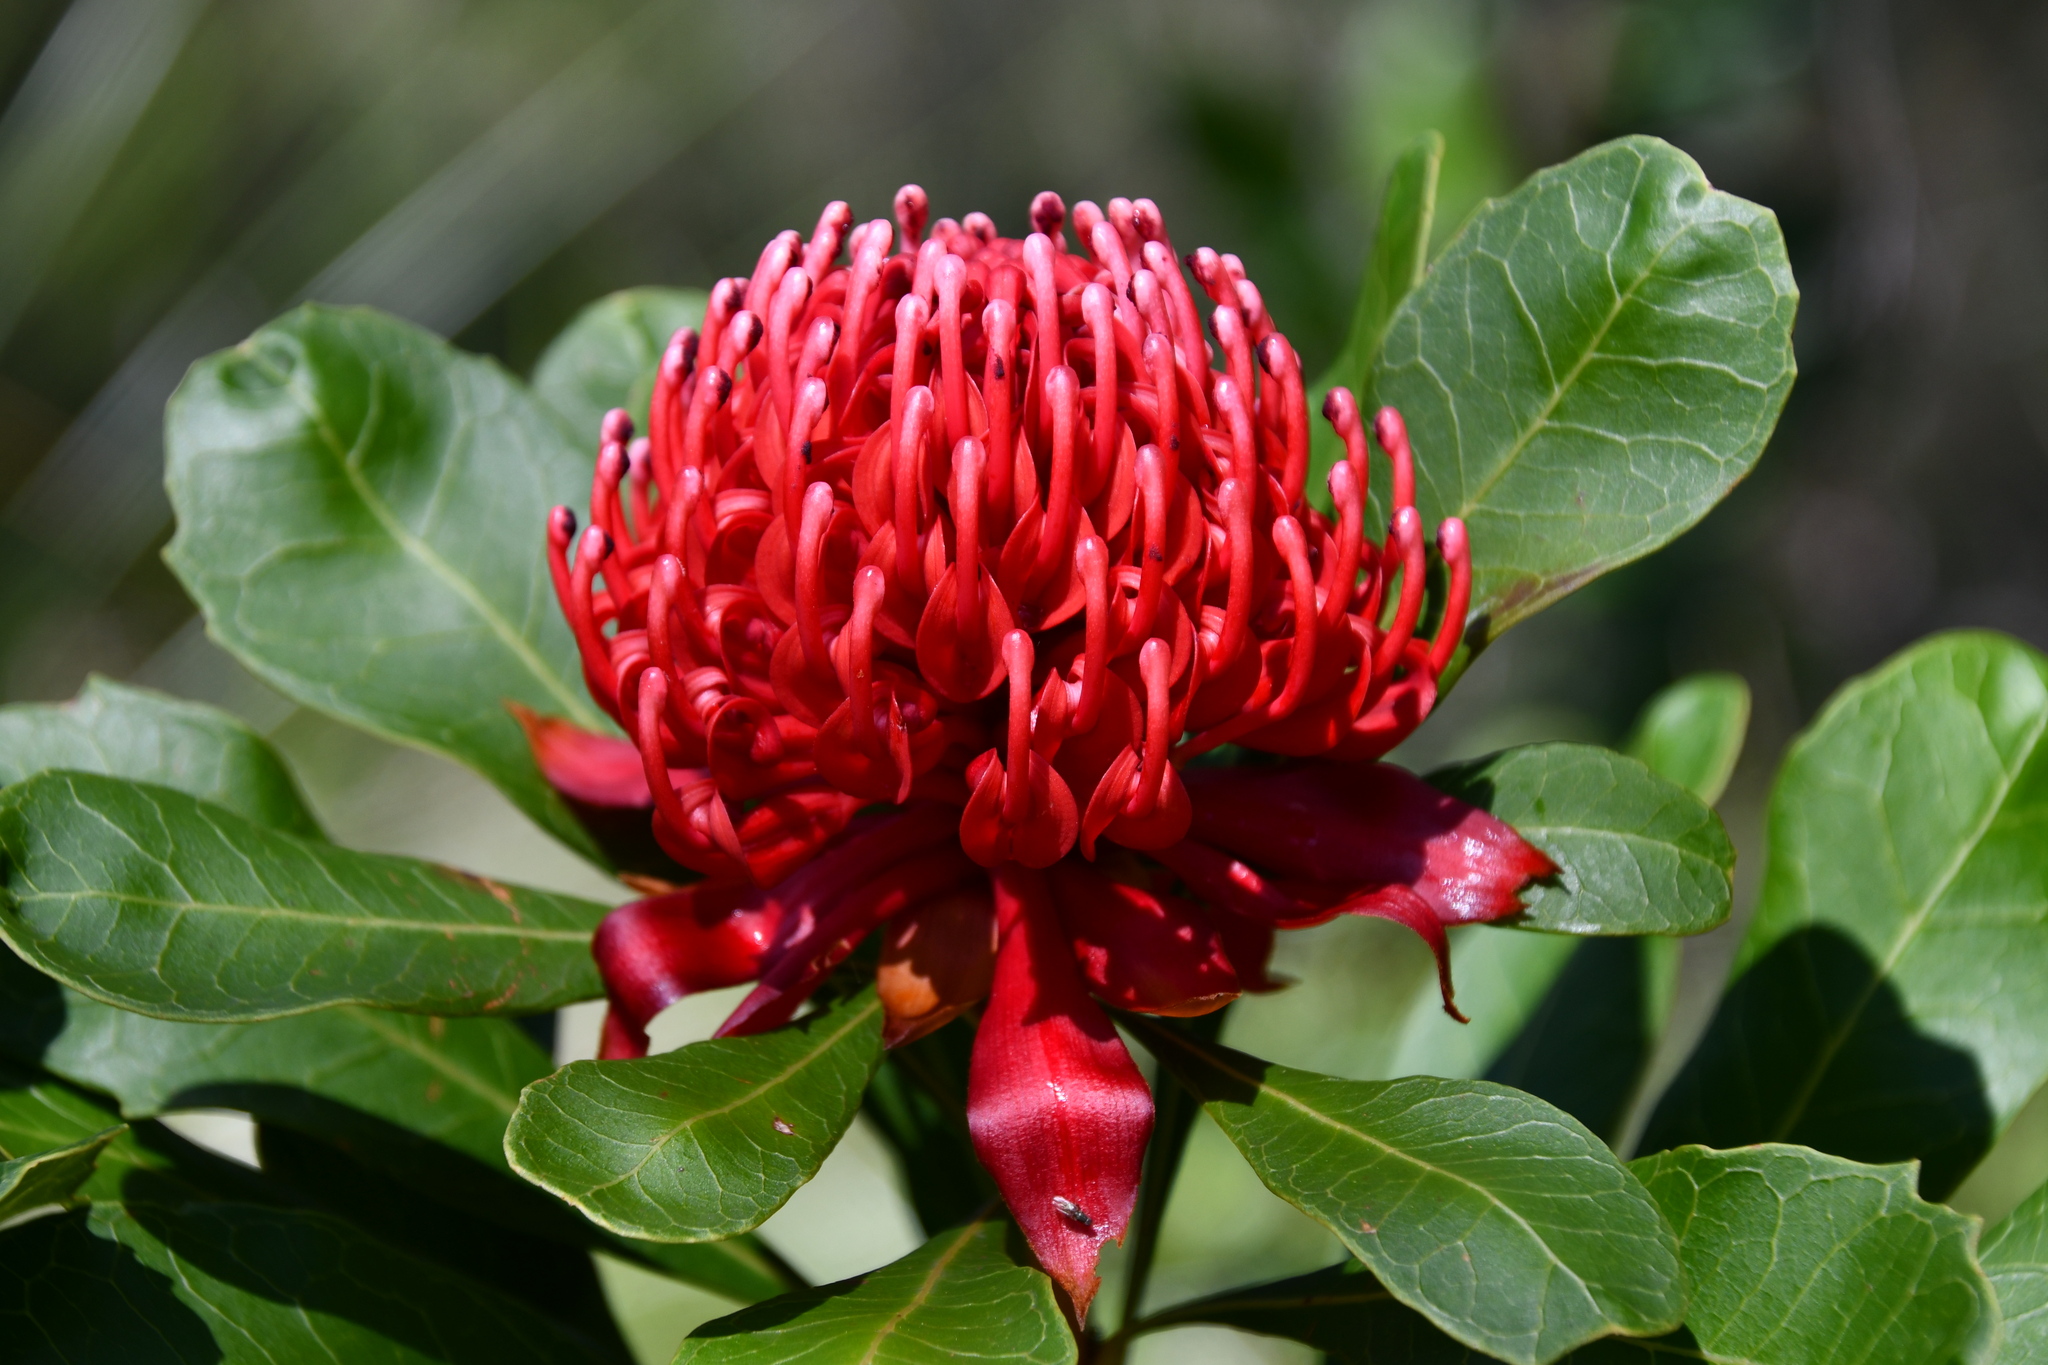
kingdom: Plantae
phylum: Tracheophyta
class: Magnoliopsida
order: Proteales
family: Proteaceae
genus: Telopea
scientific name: Telopea speciosissima
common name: New south wales waratah
